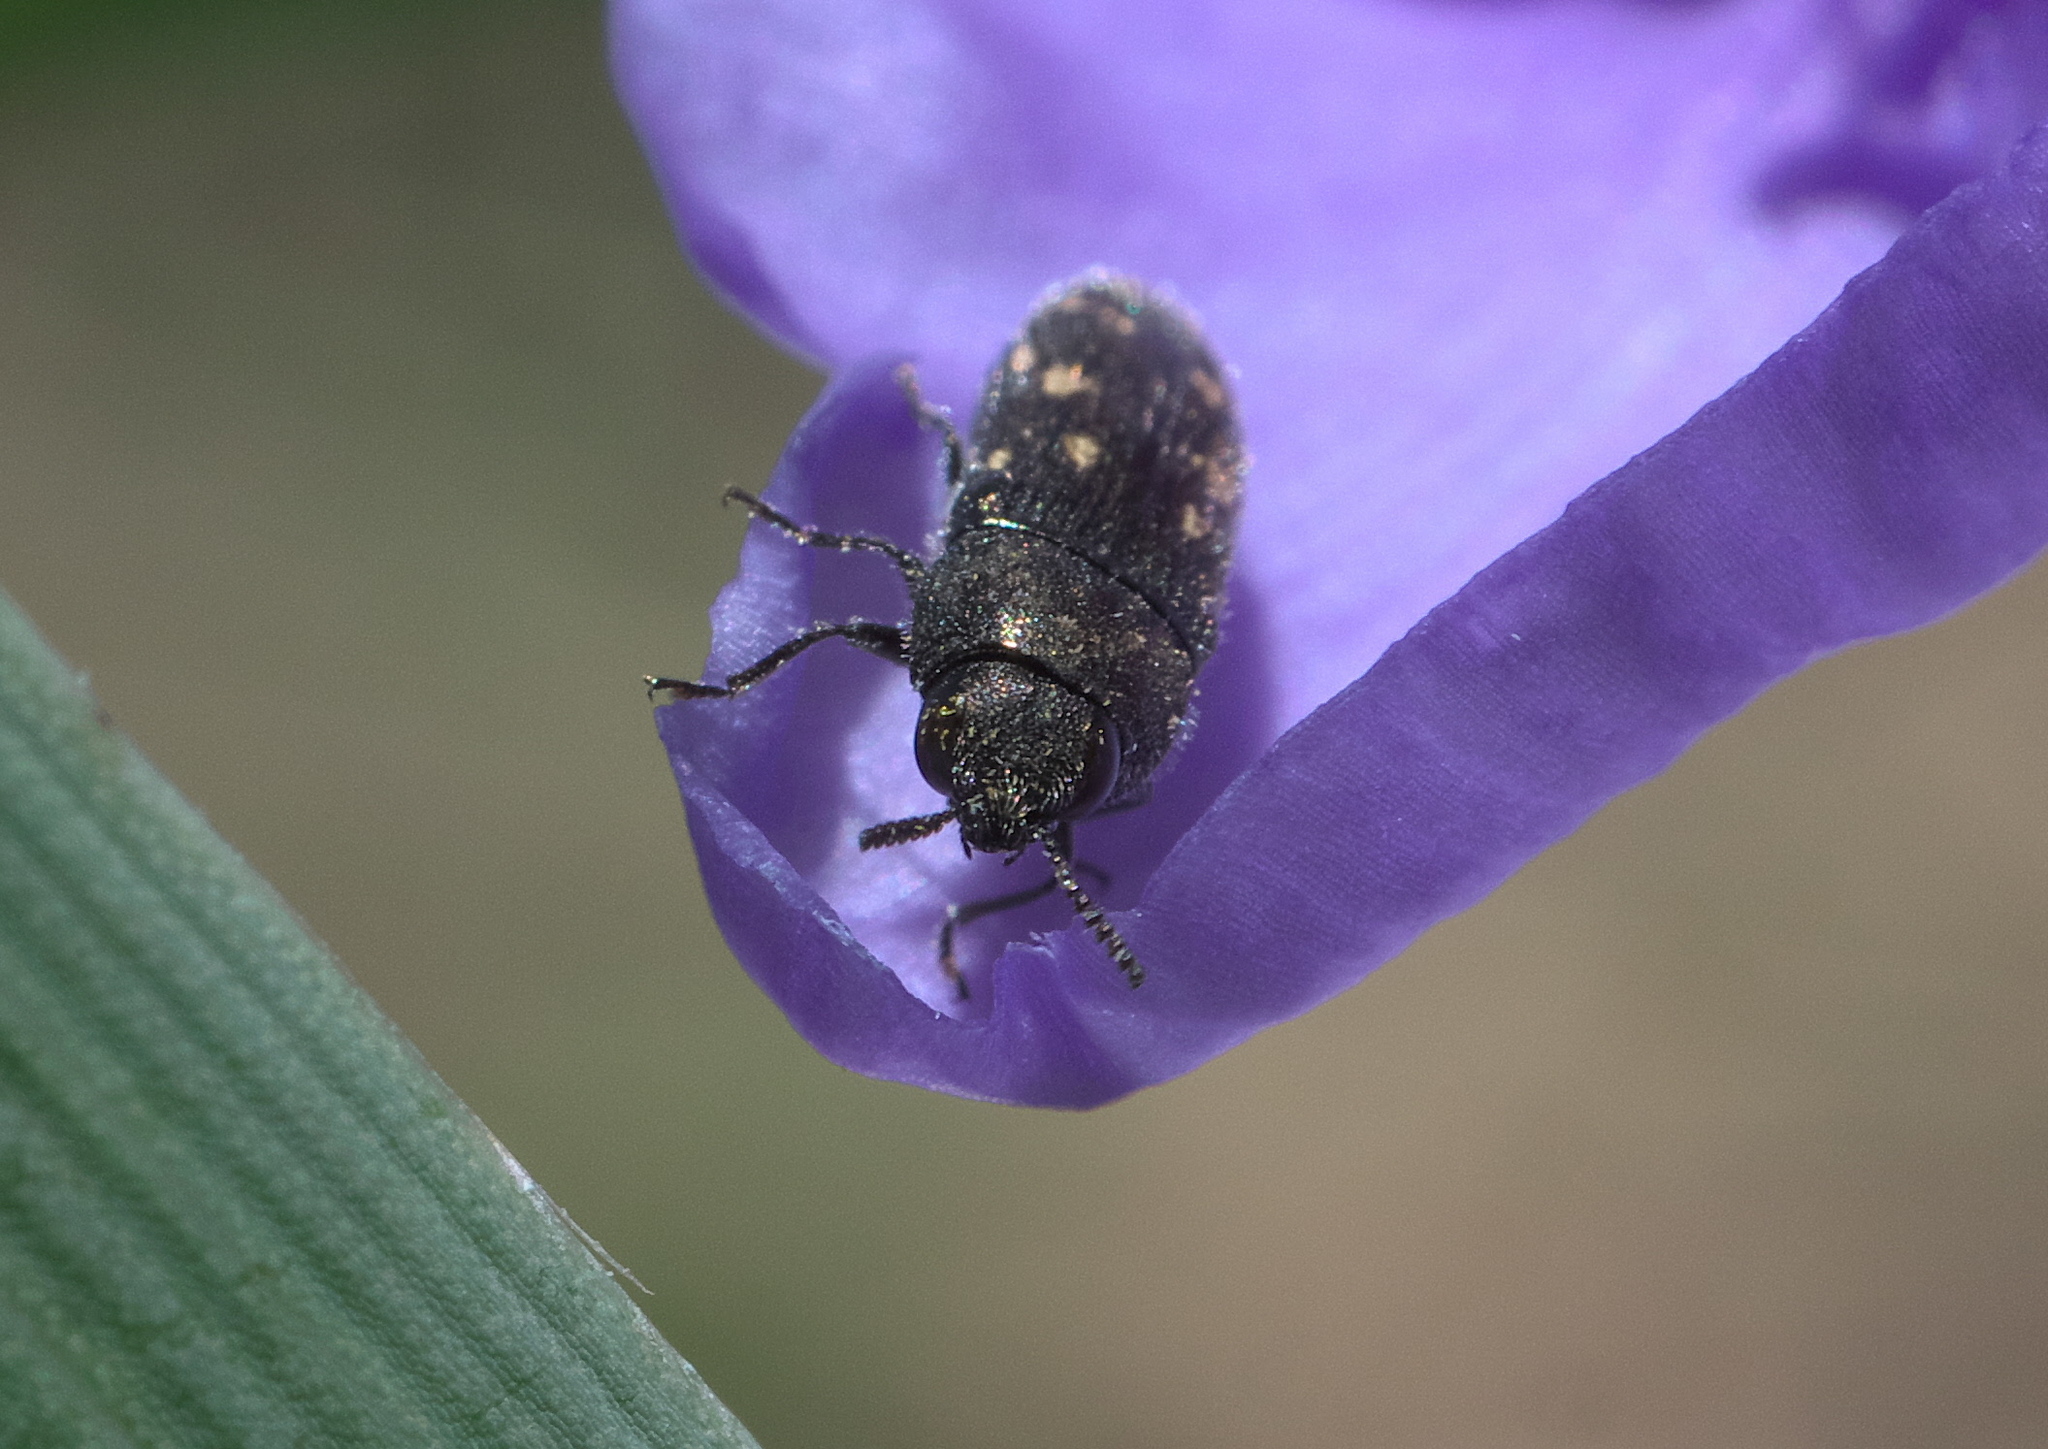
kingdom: Animalia
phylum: Arthropoda
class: Insecta
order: Coleoptera
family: Buprestidae
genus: Acmaeodera
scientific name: Acmaeodera tubulus
